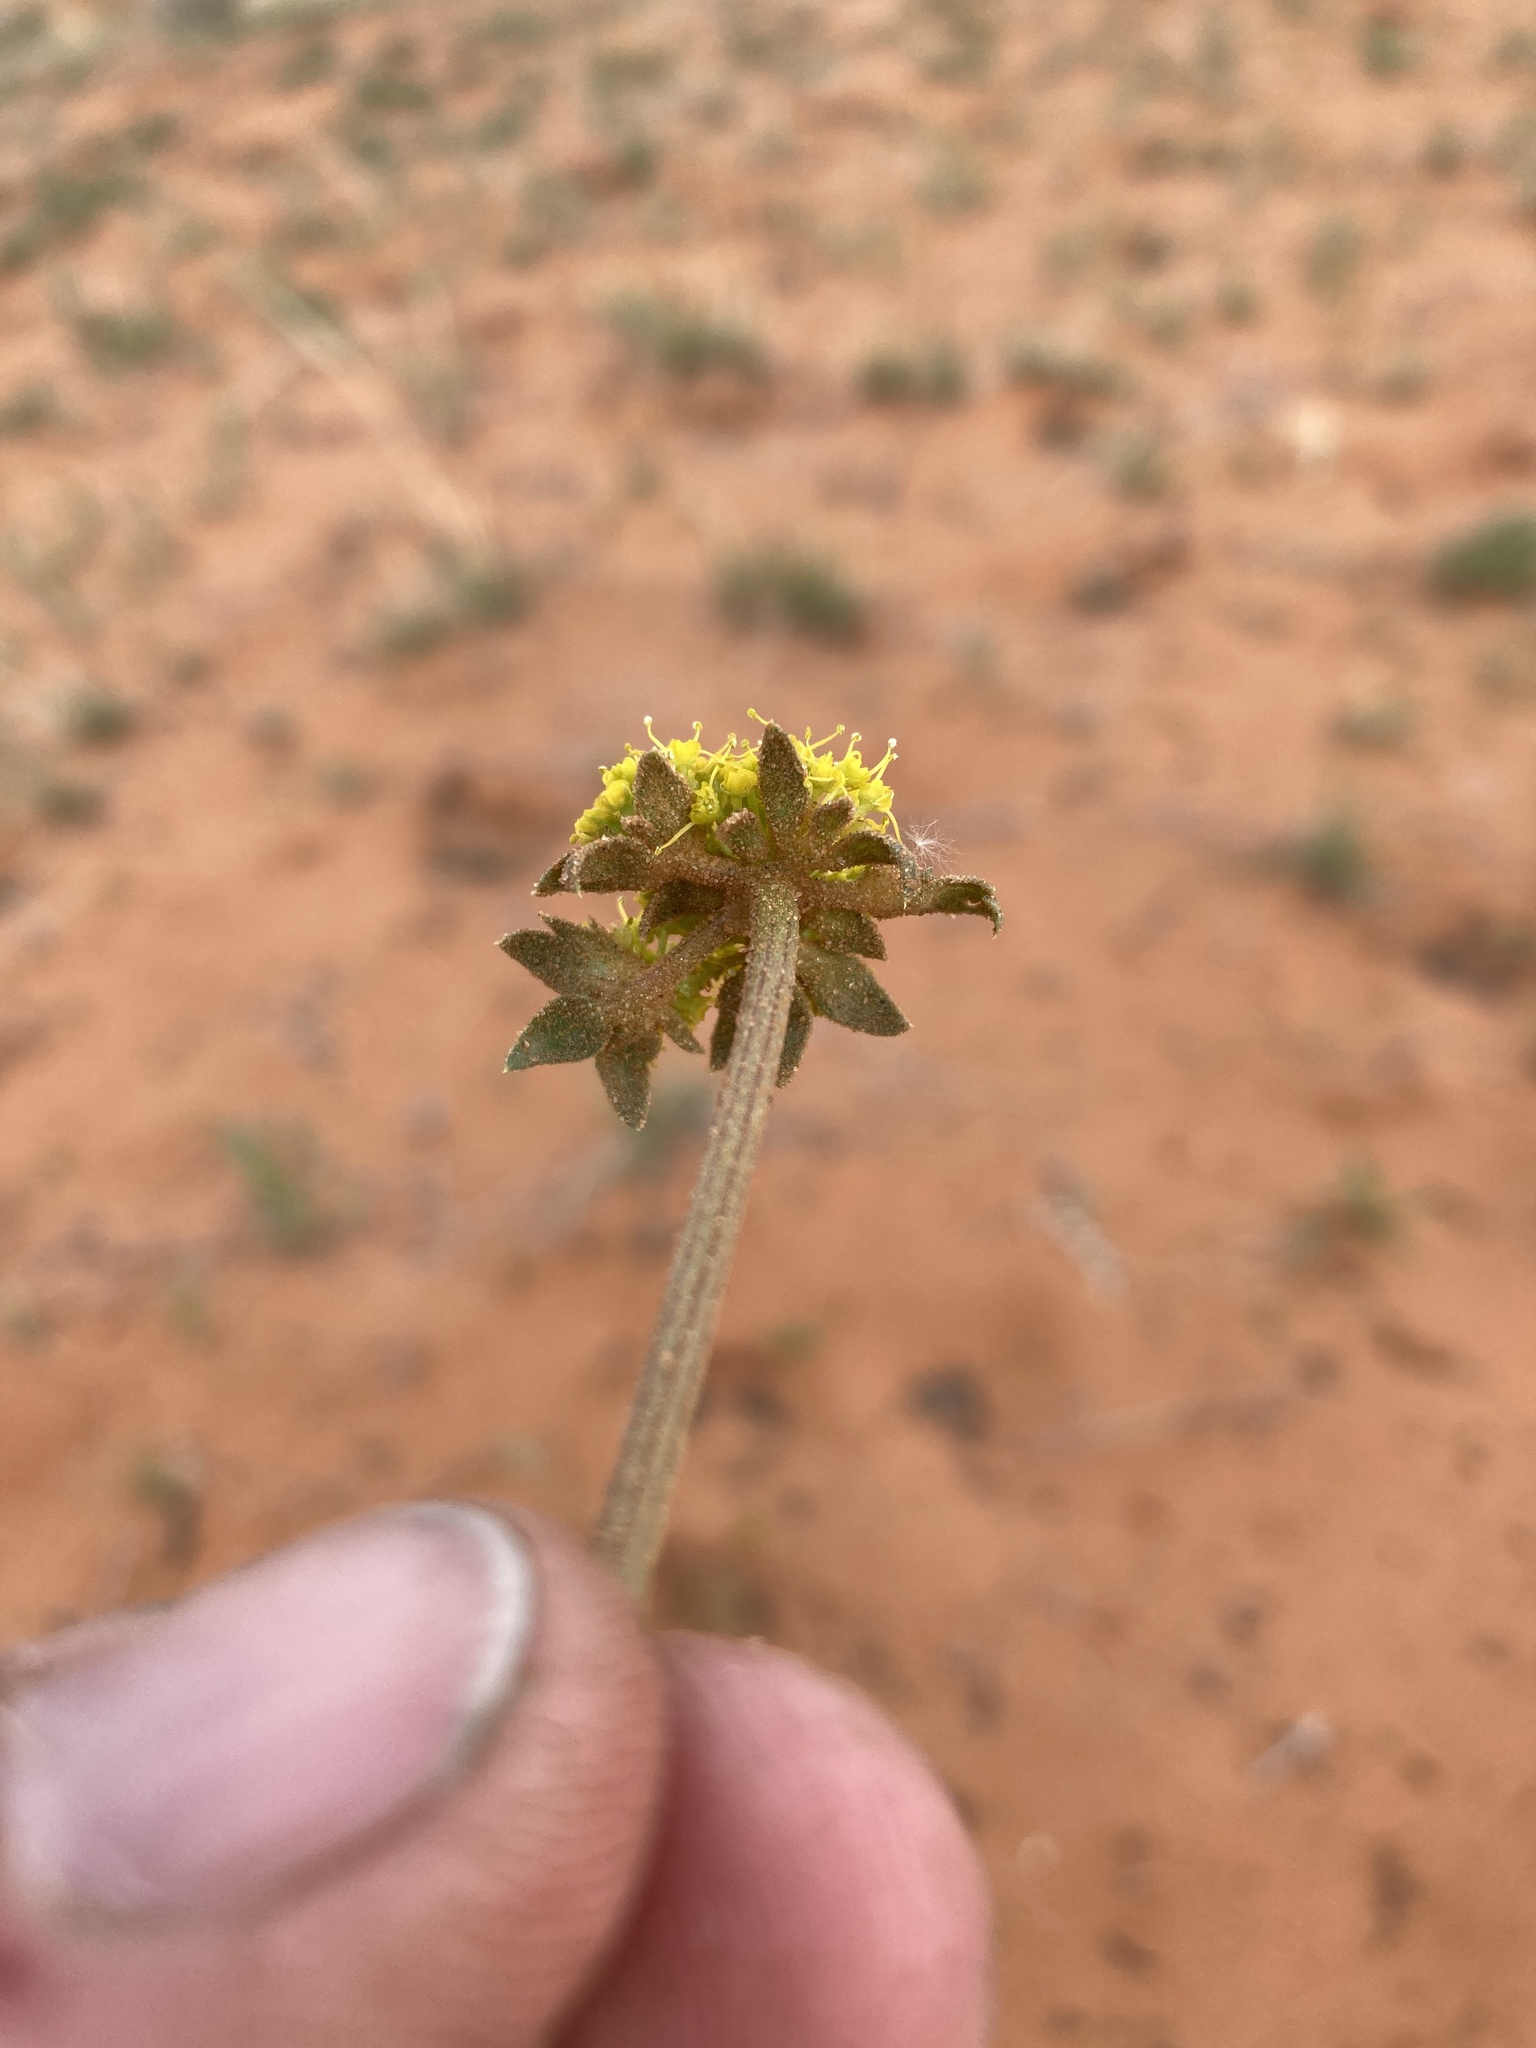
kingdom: Plantae
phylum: Tracheophyta
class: Magnoliopsida
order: Apiales
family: Apiaceae
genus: Cymopterus
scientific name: Cymopterus glomeratus
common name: Plains spring parsley
